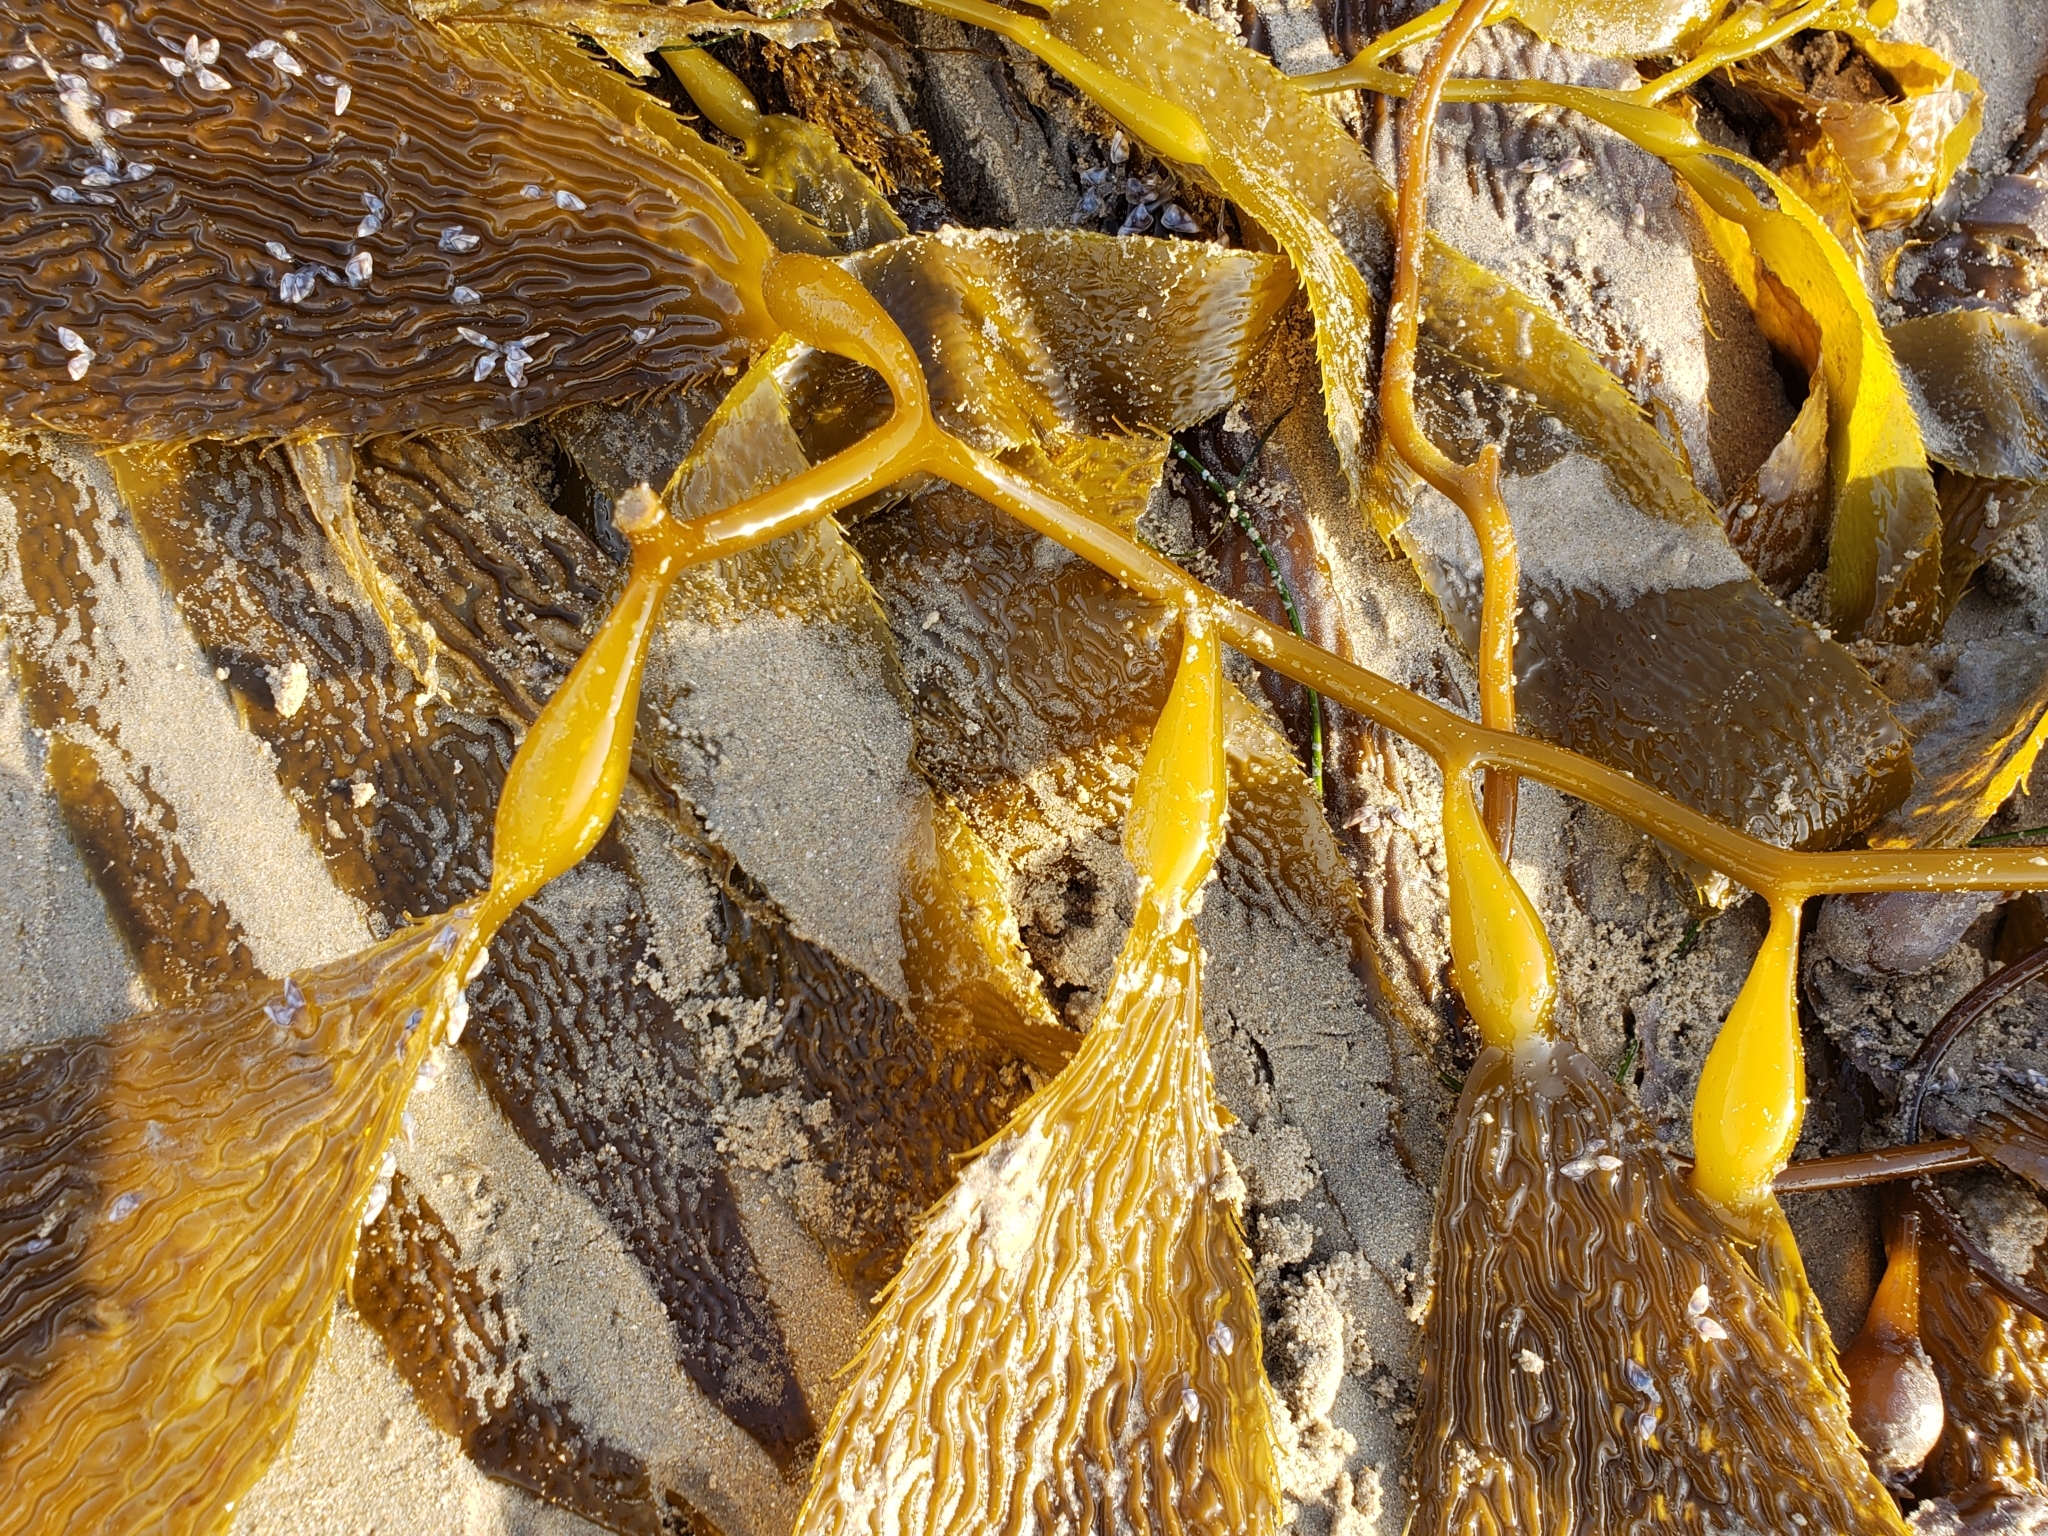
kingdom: Chromista
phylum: Ochrophyta
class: Phaeophyceae
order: Laminariales
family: Laminariaceae
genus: Macrocystis
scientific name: Macrocystis pyrifera
